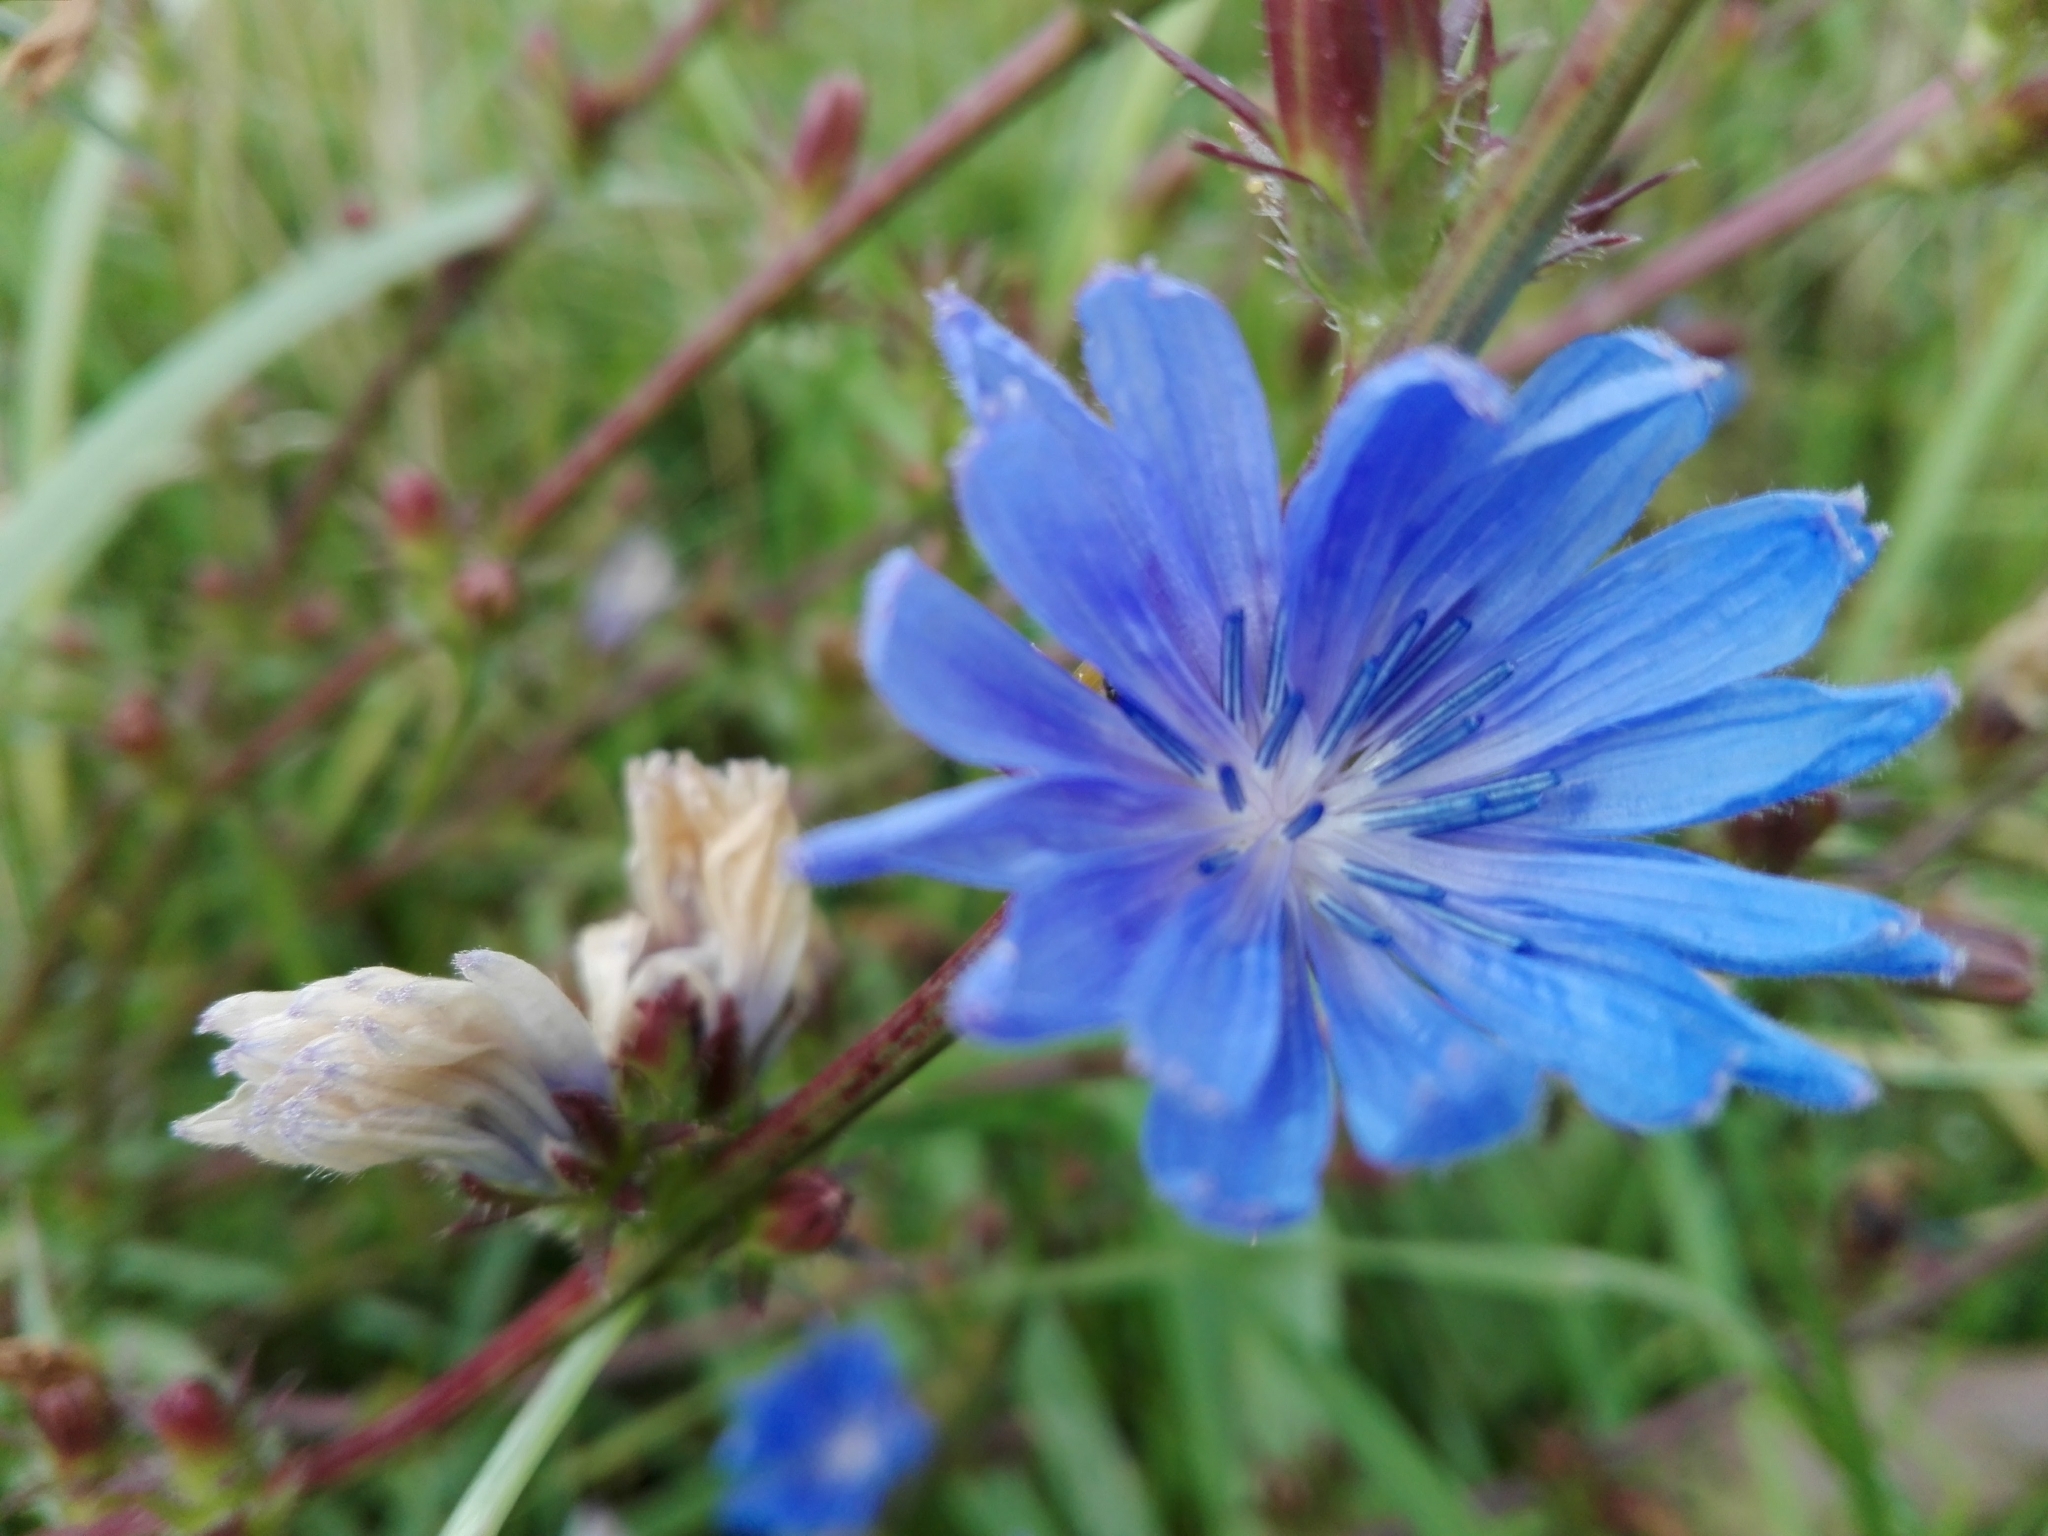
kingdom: Plantae
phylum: Tracheophyta
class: Magnoliopsida
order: Asterales
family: Asteraceae
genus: Cichorium
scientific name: Cichorium intybus
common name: Chicory
